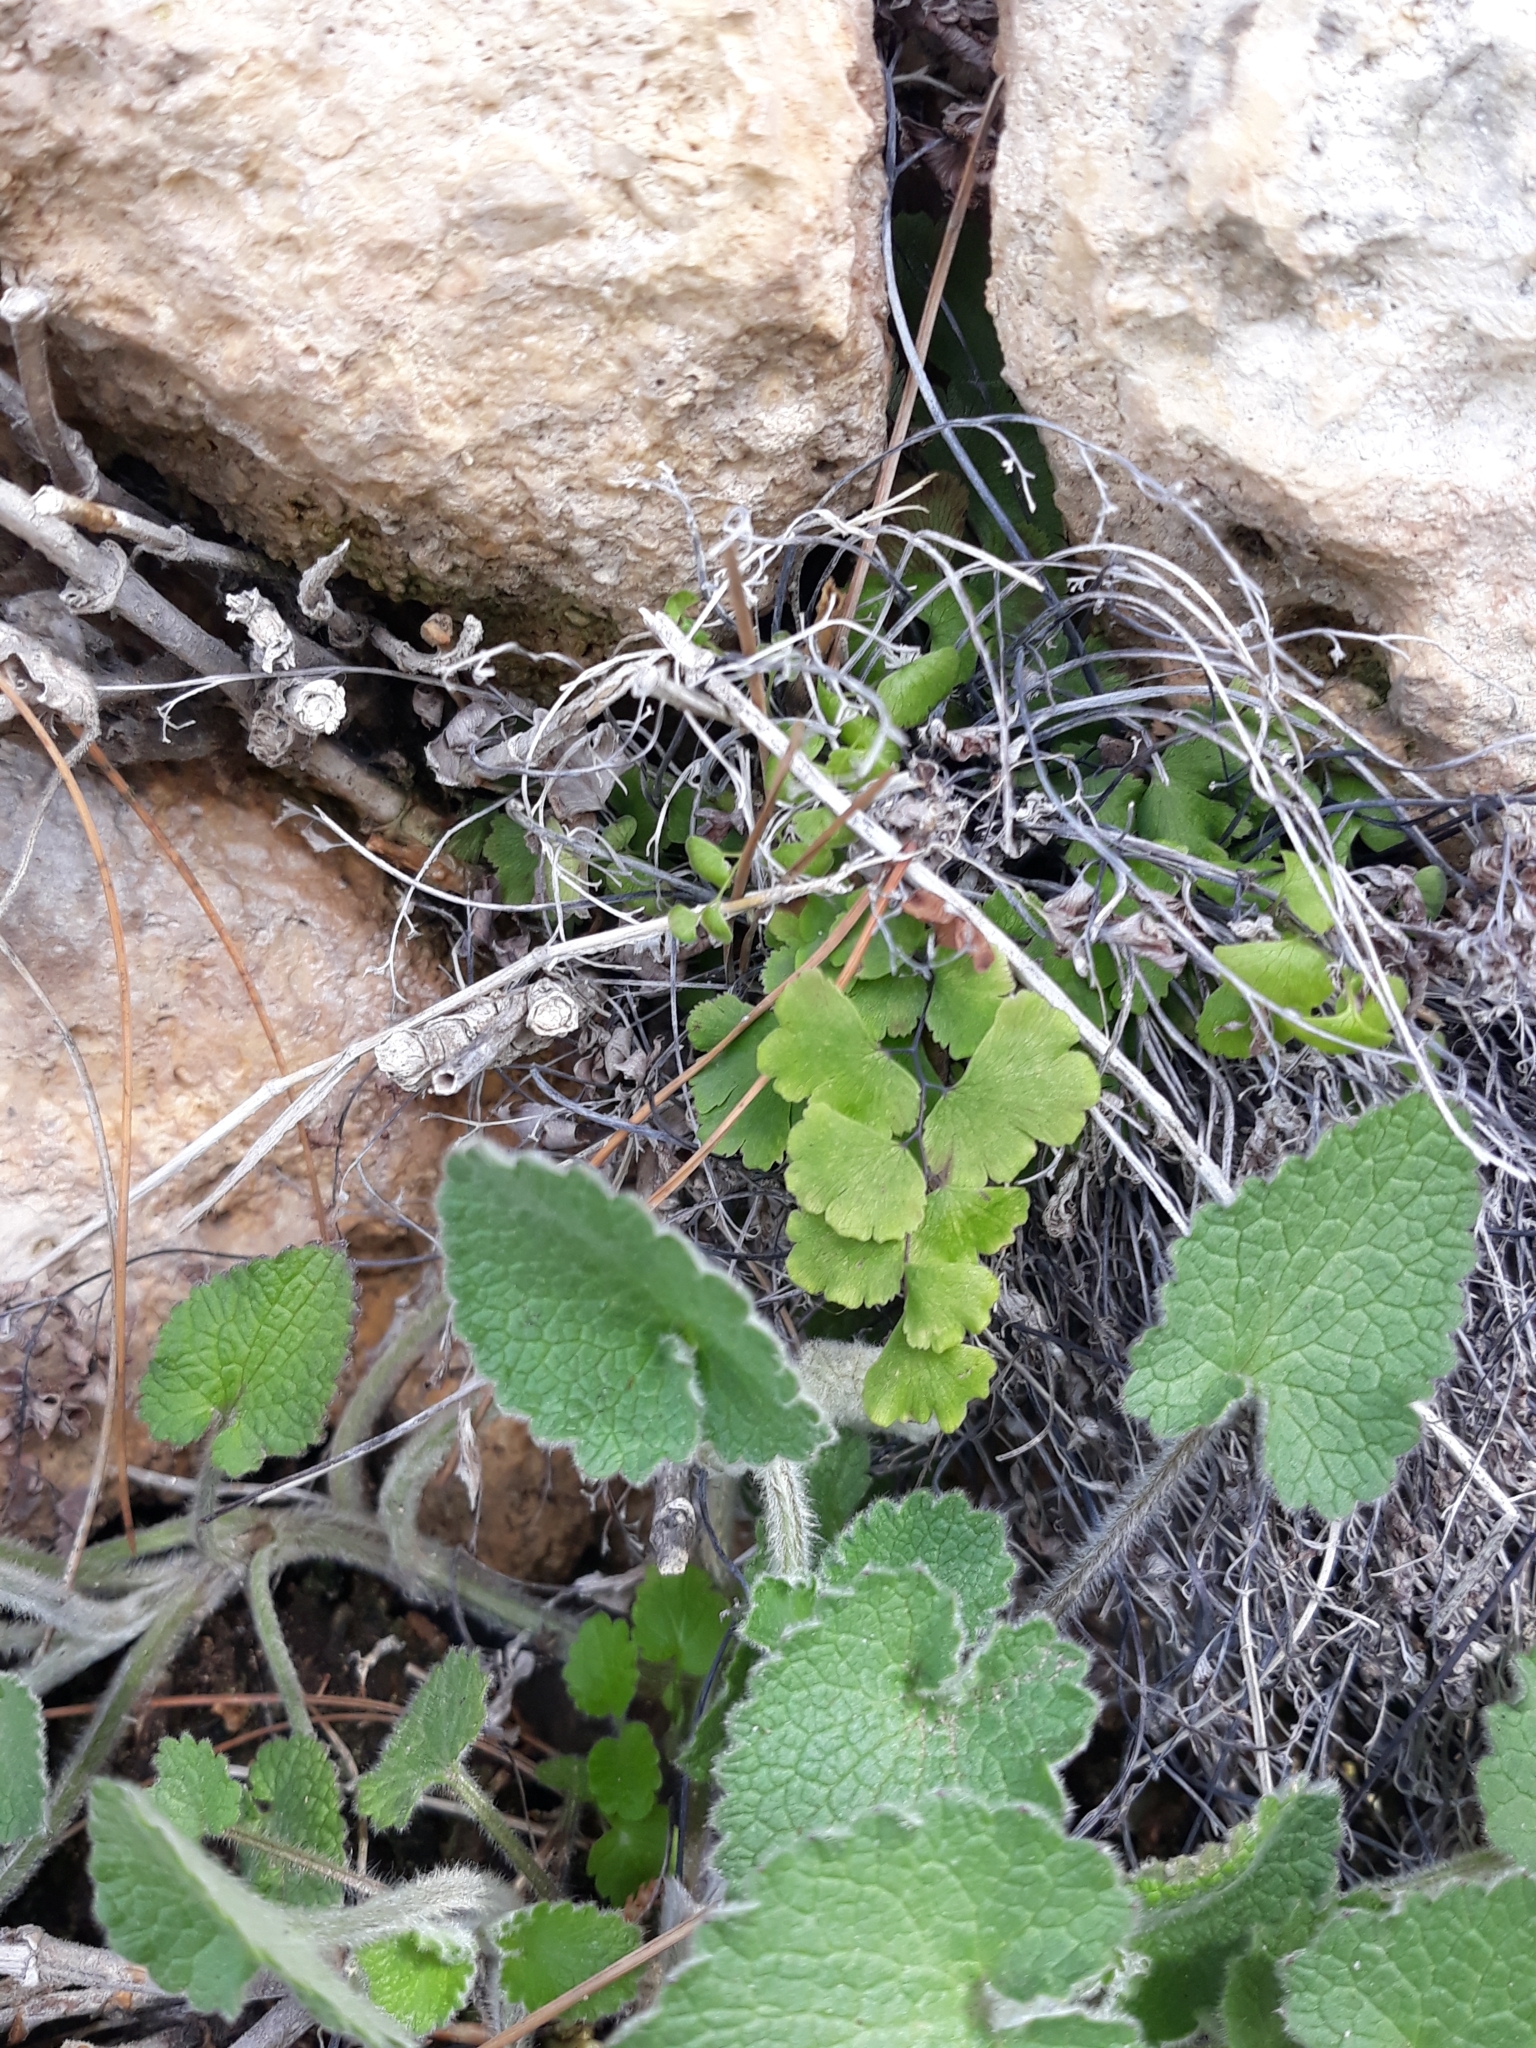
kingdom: Plantae
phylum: Tracheophyta
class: Polypodiopsida
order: Polypodiales
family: Pteridaceae
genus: Adiantum
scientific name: Adiantum capillus-veneris
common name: Maidenhair fern
